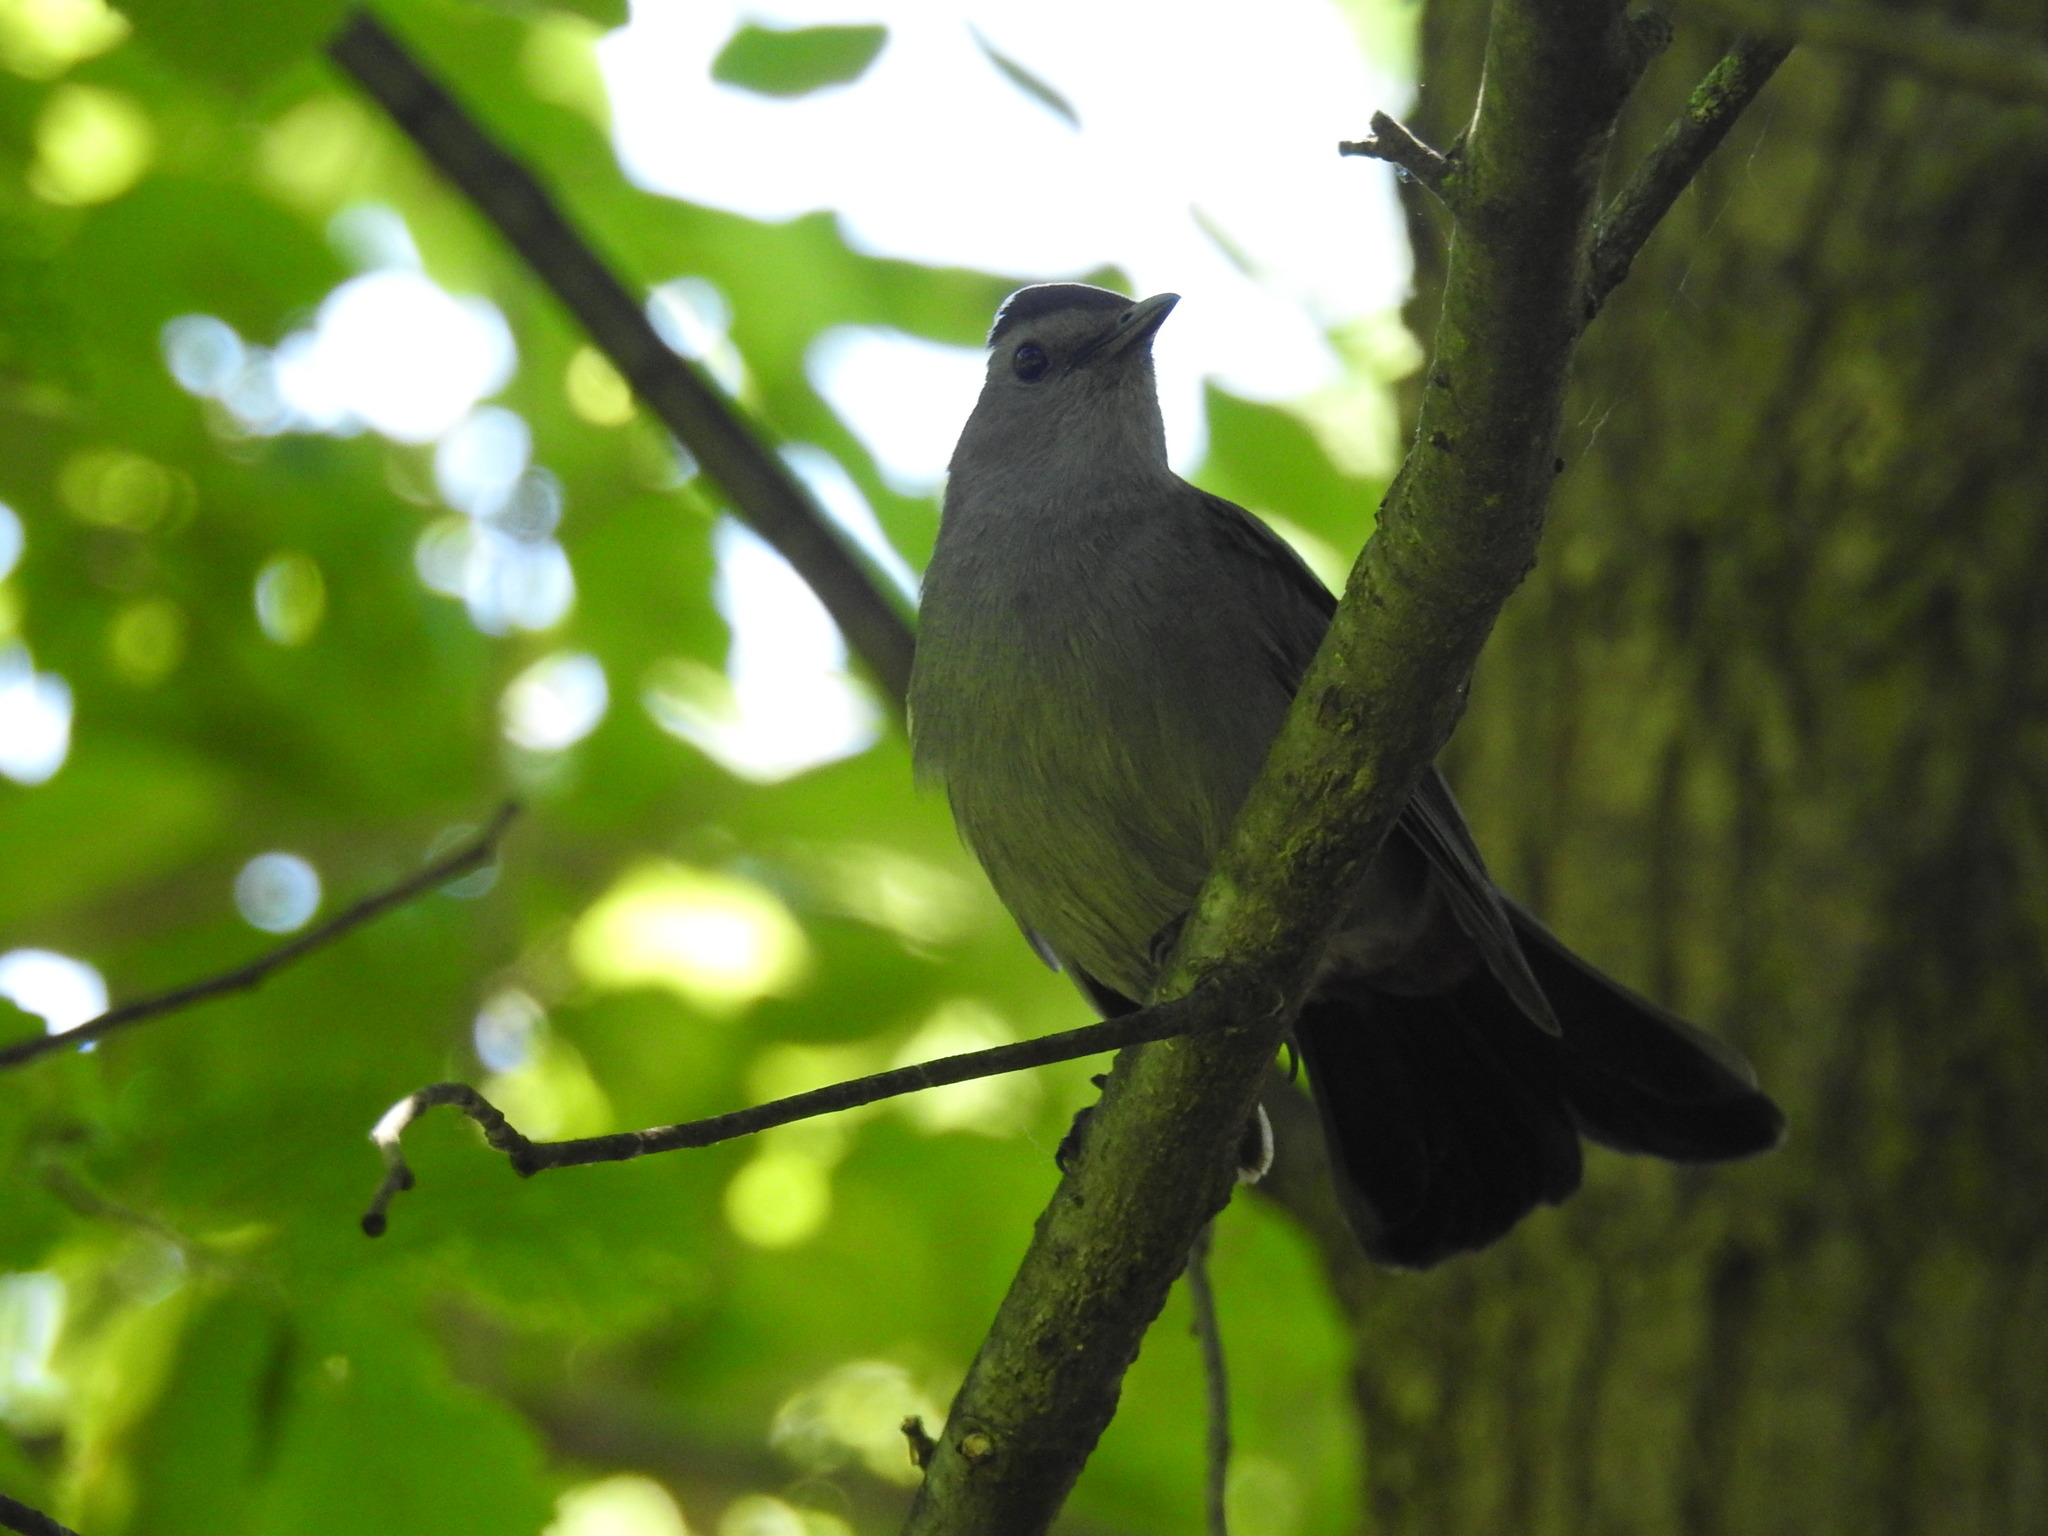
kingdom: Animalia
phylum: Chordata
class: Aves
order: Passeriformes
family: Mimidae
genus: Dumetella
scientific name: Dumetella carolinensis
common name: Gray catbird
